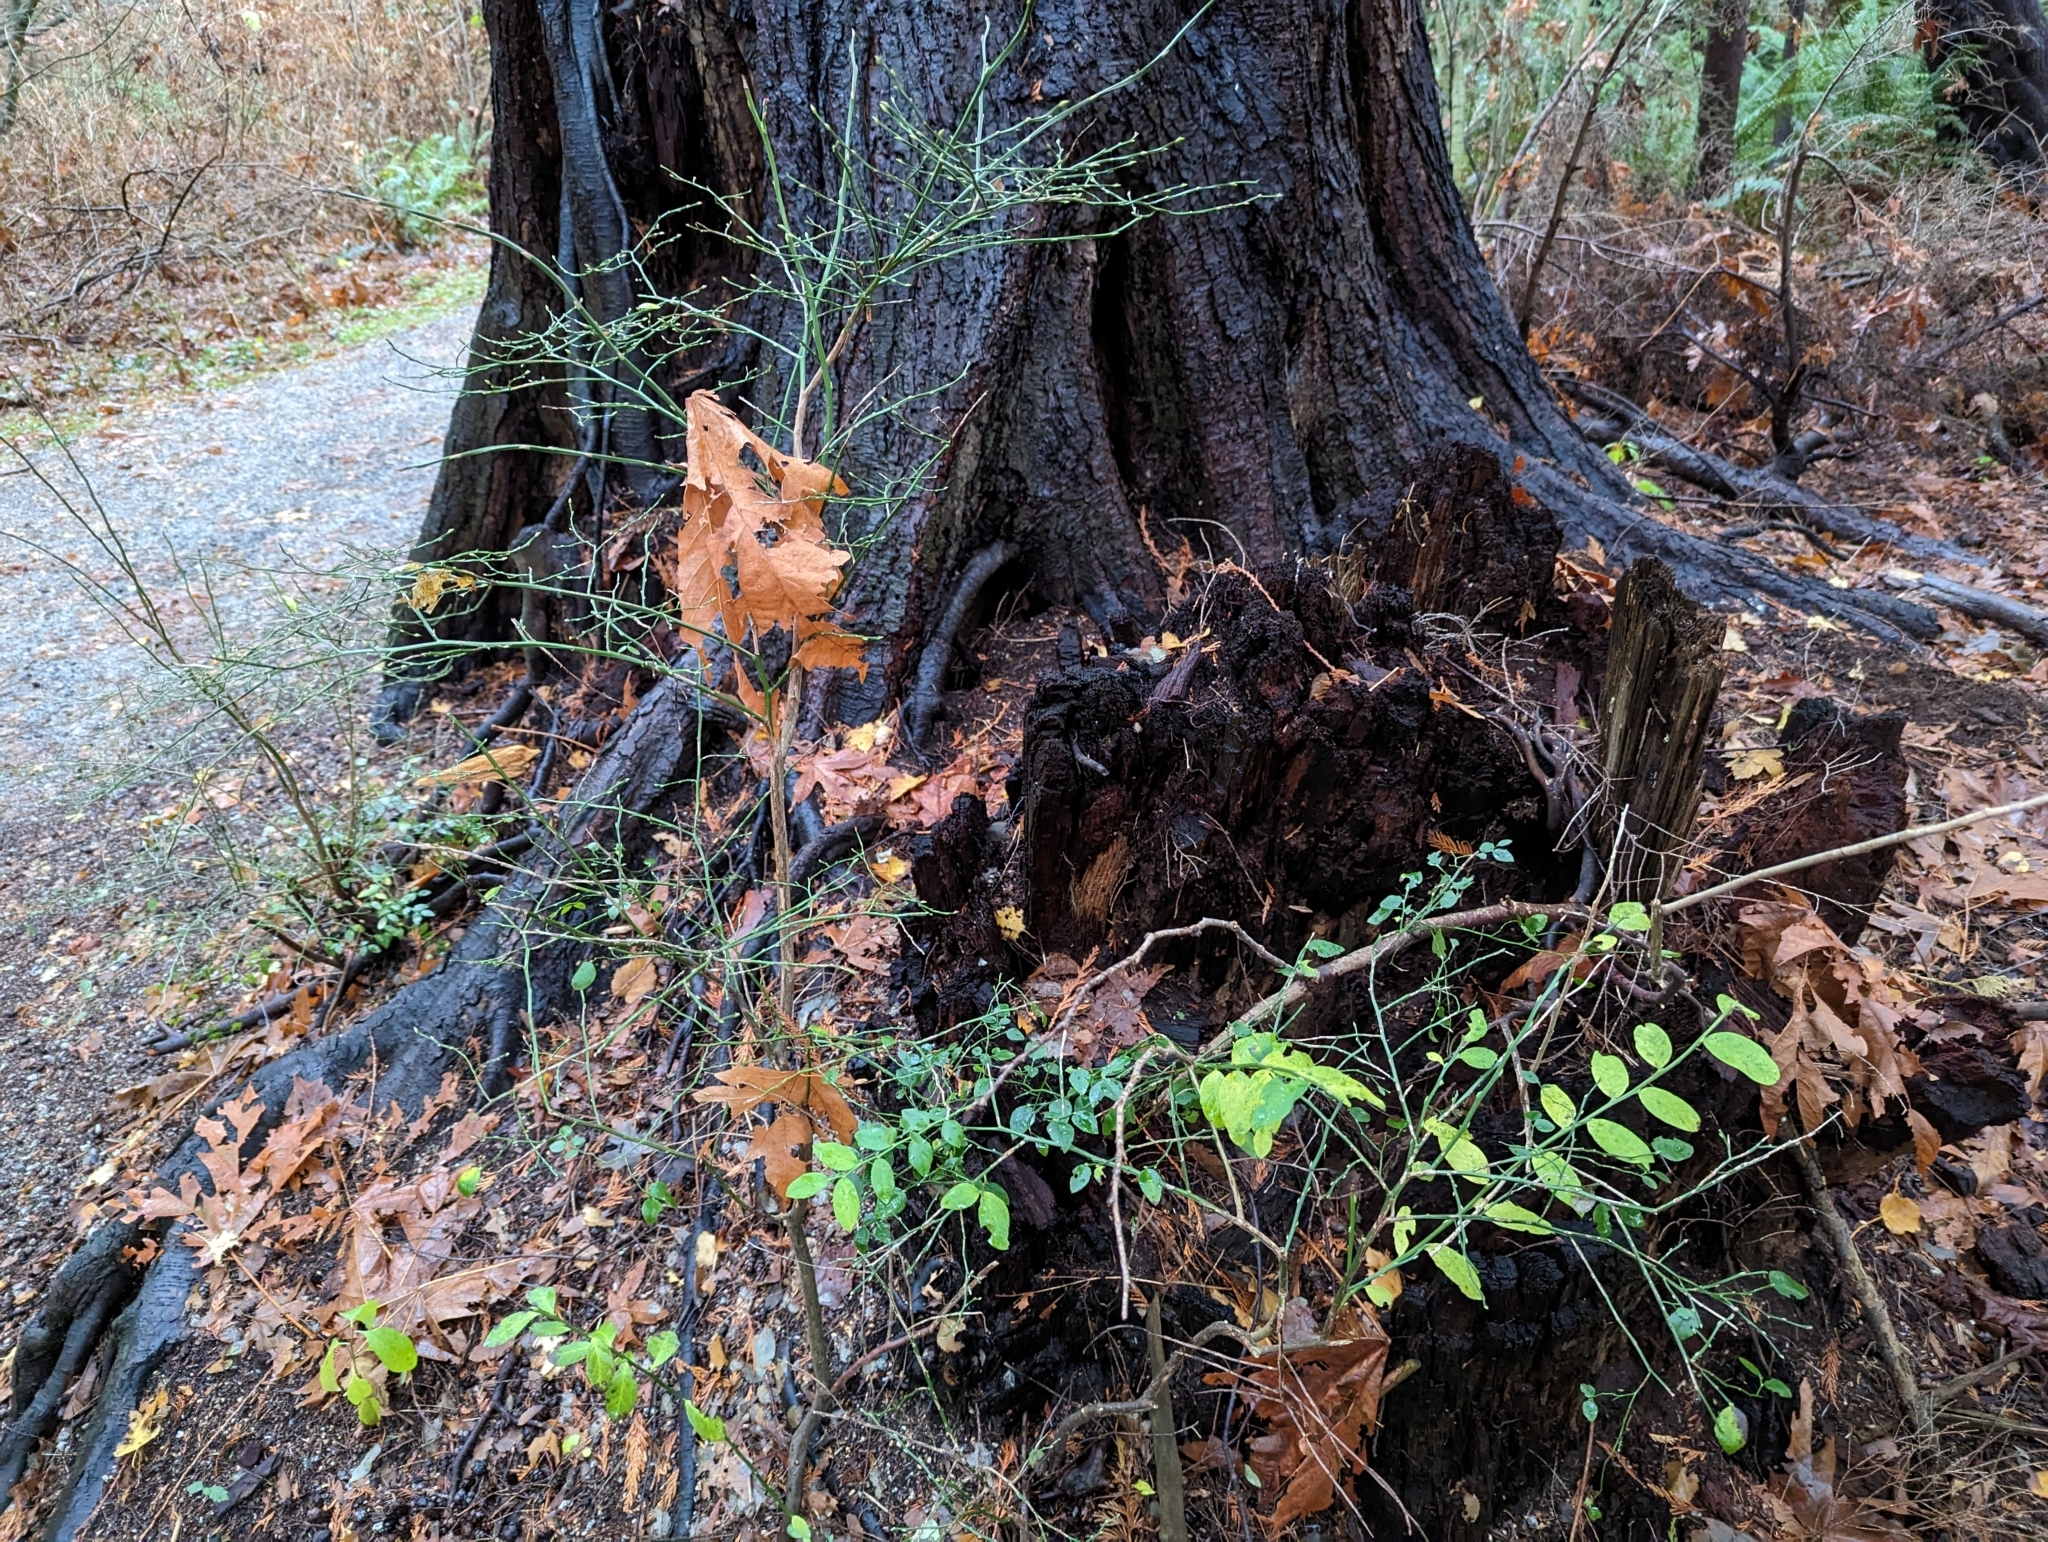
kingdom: Plantae
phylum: Tracheophyta
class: Magnoliopsida
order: Ericales
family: Ericaceae
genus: Vaccinium
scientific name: Vaccinium parvifolium
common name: Red-huckleberry
